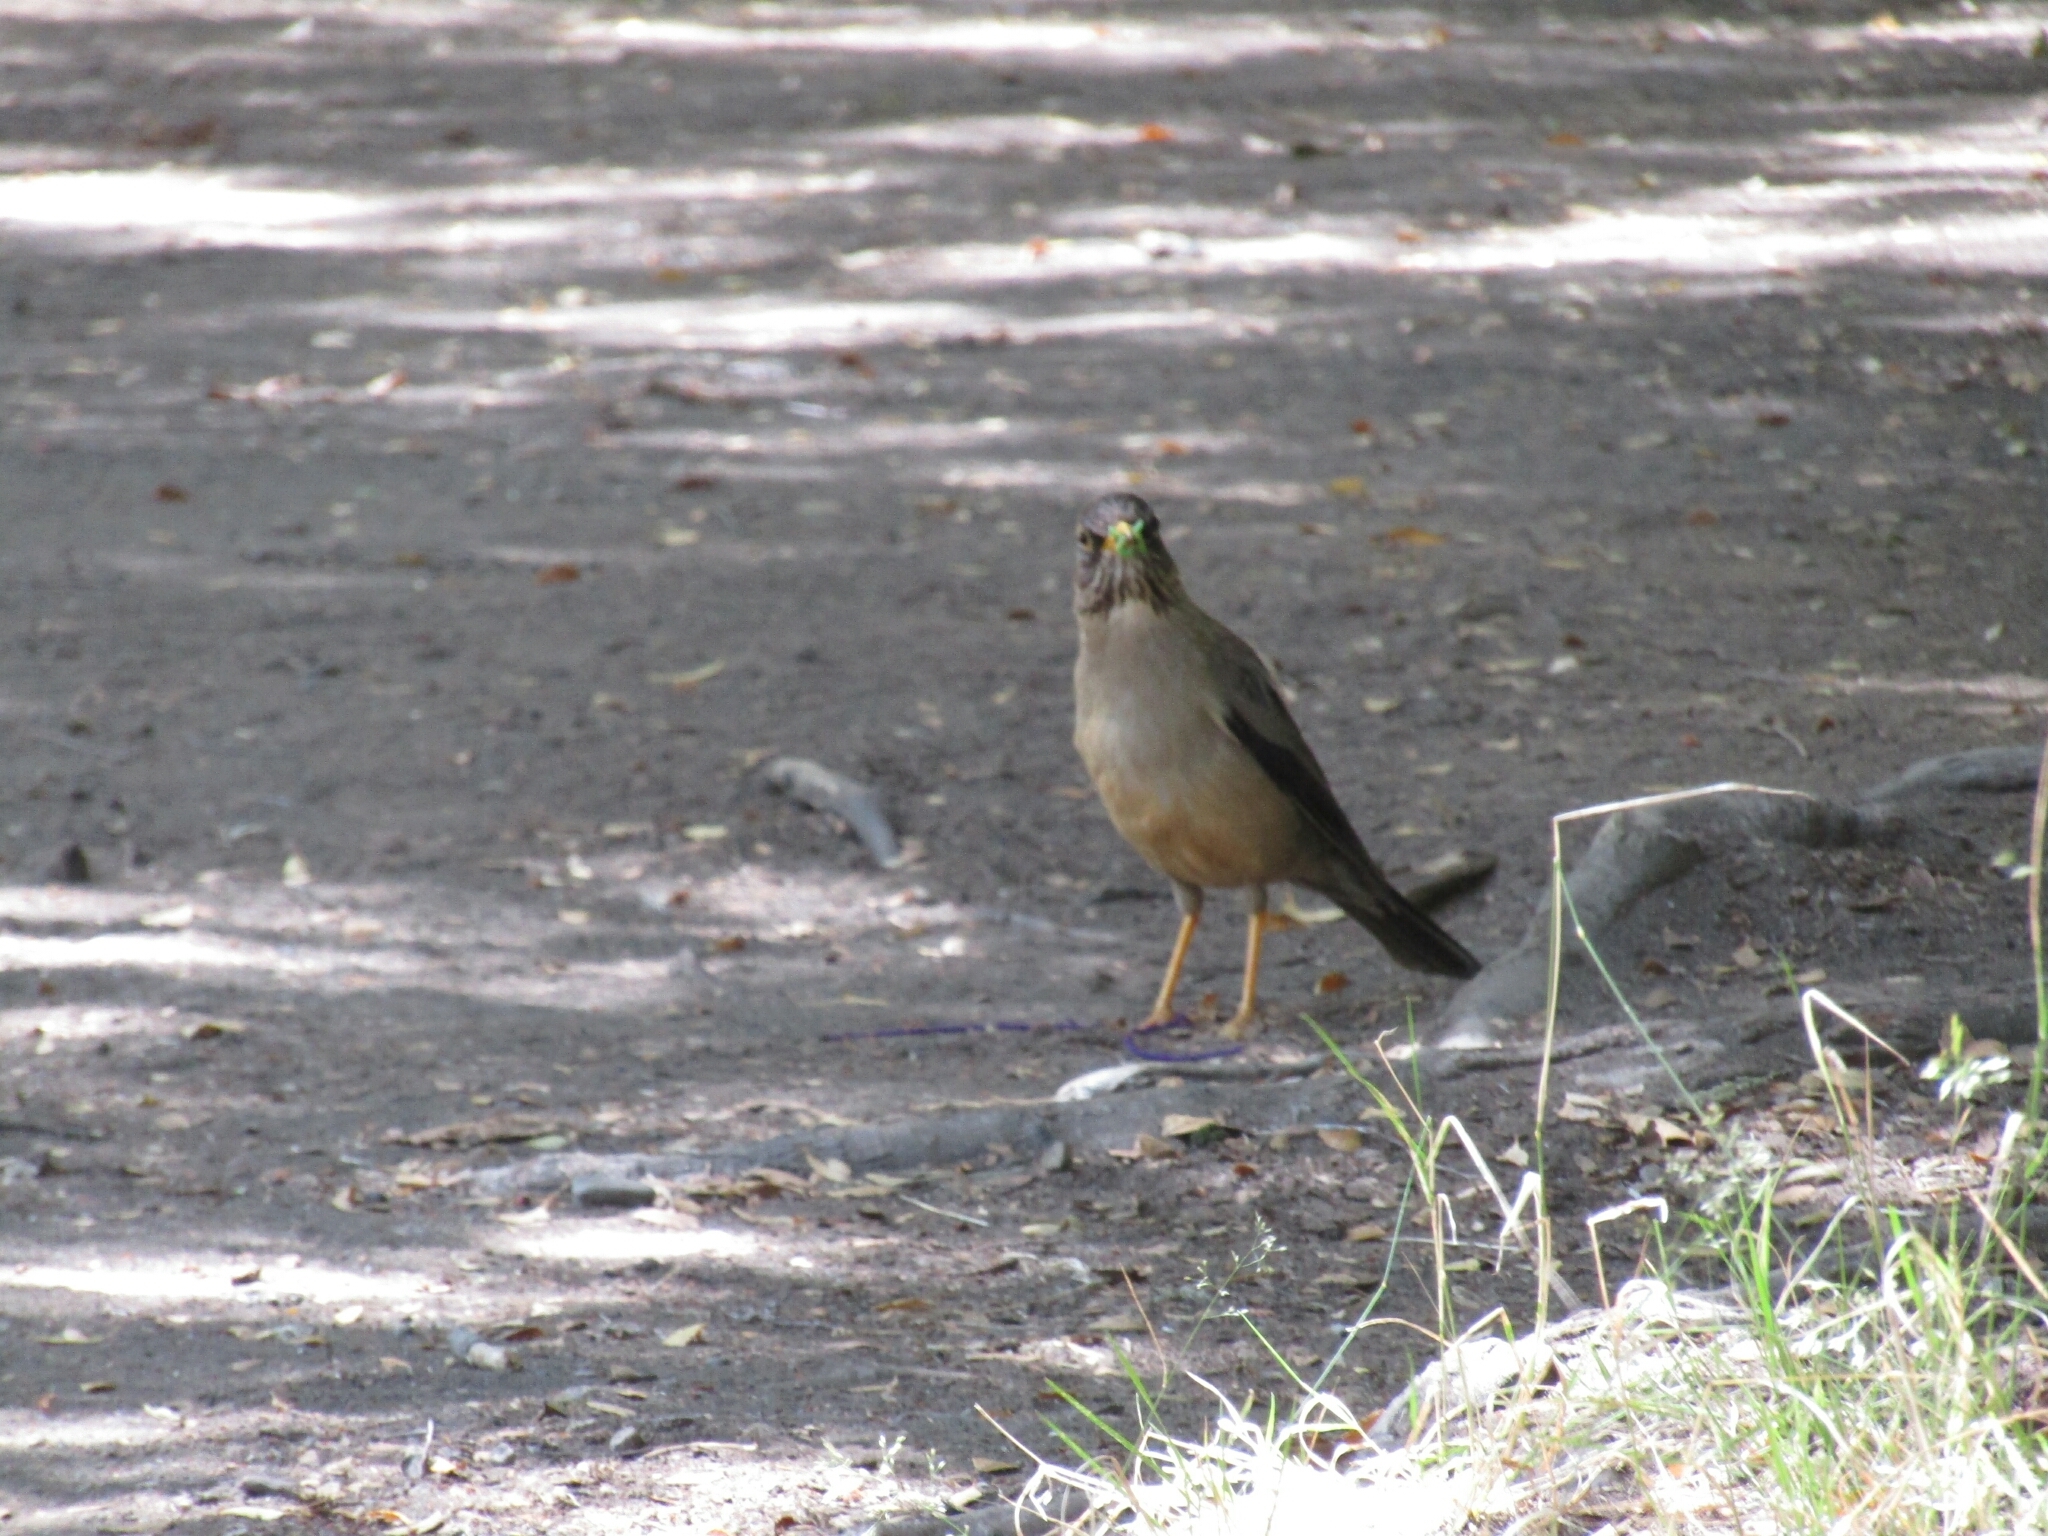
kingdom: Animalia
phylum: Chordata
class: Aves
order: Passeriformes
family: Turdidae
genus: Turdus
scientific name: Turdus falcklandii
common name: Austral thrush
